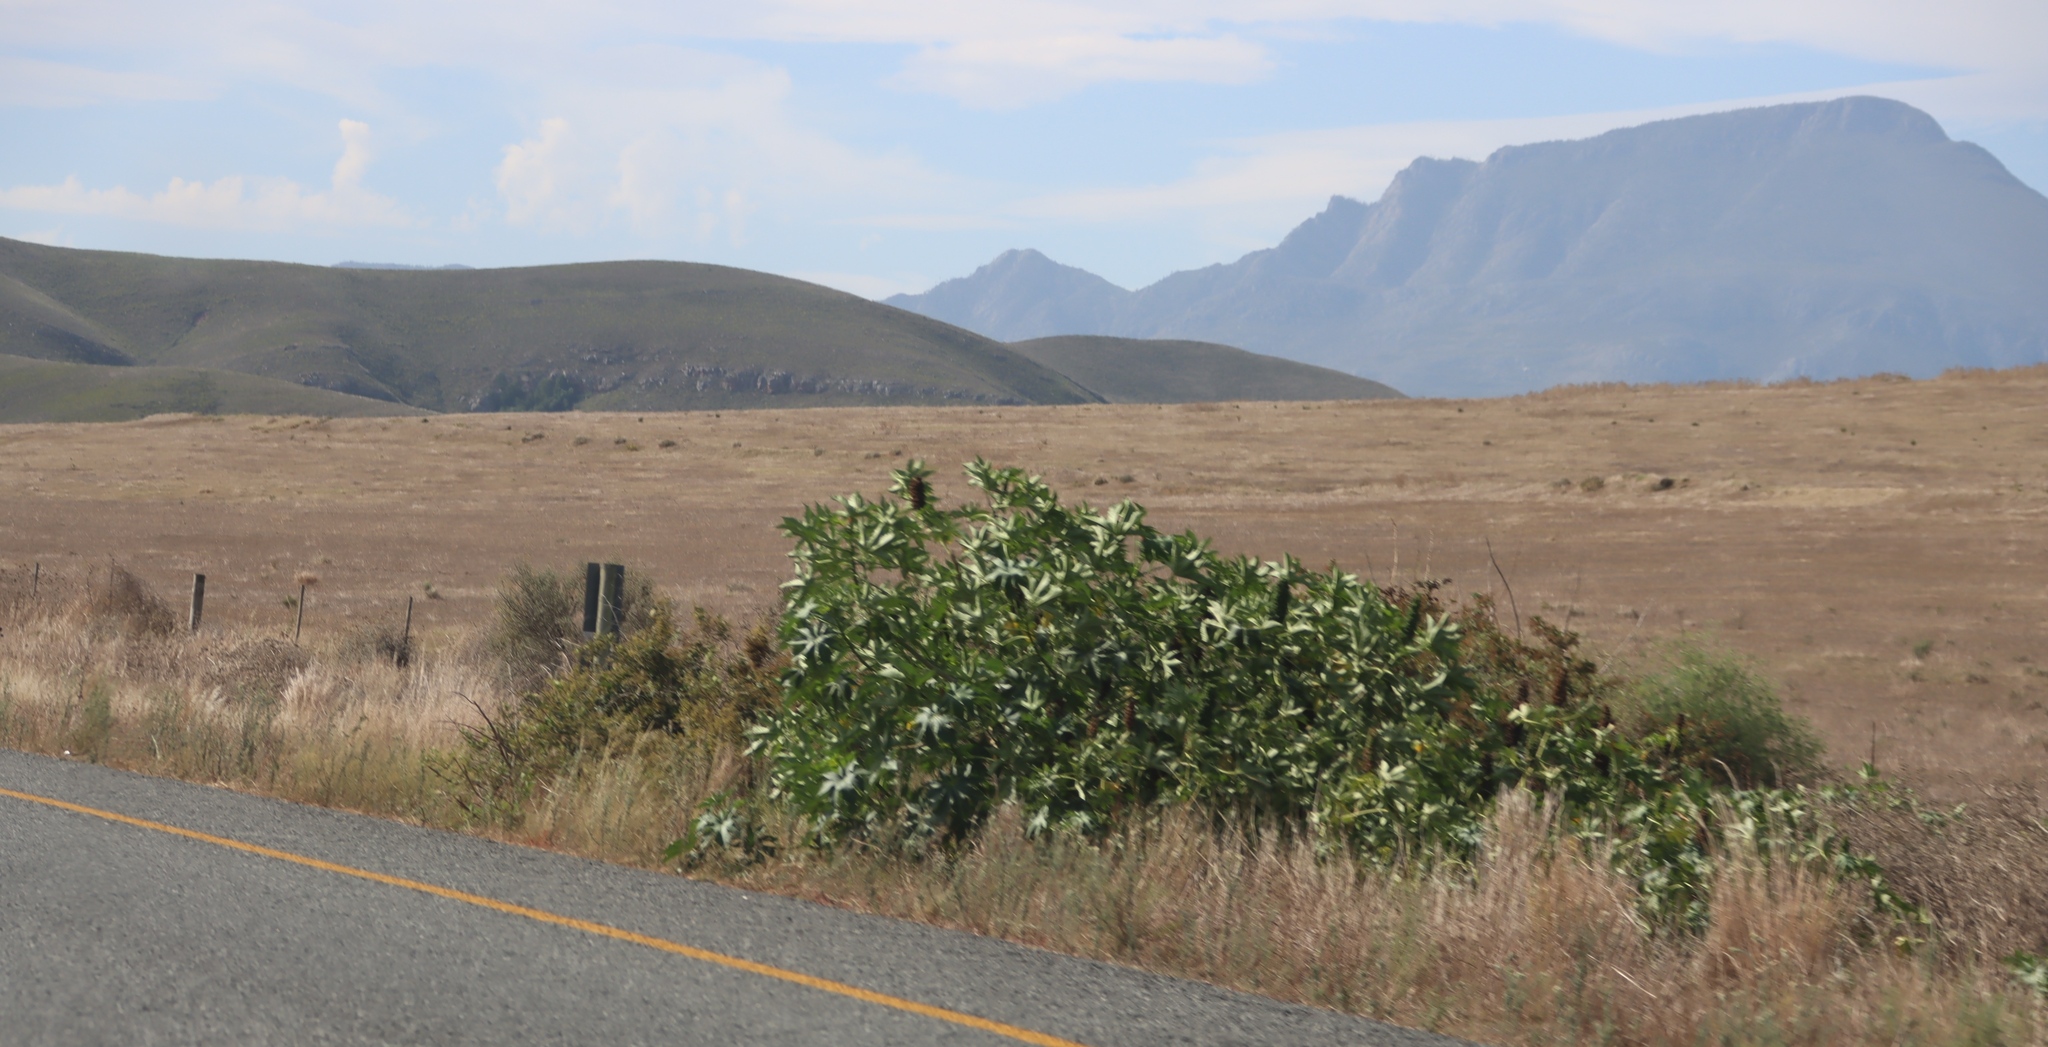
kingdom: Plantae
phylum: Tracheophyta
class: Magnoliopsida
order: Malpighiales
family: Euphorbiaceae
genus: Ricinus
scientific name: Ricinus communis
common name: Castor-oil-plant
